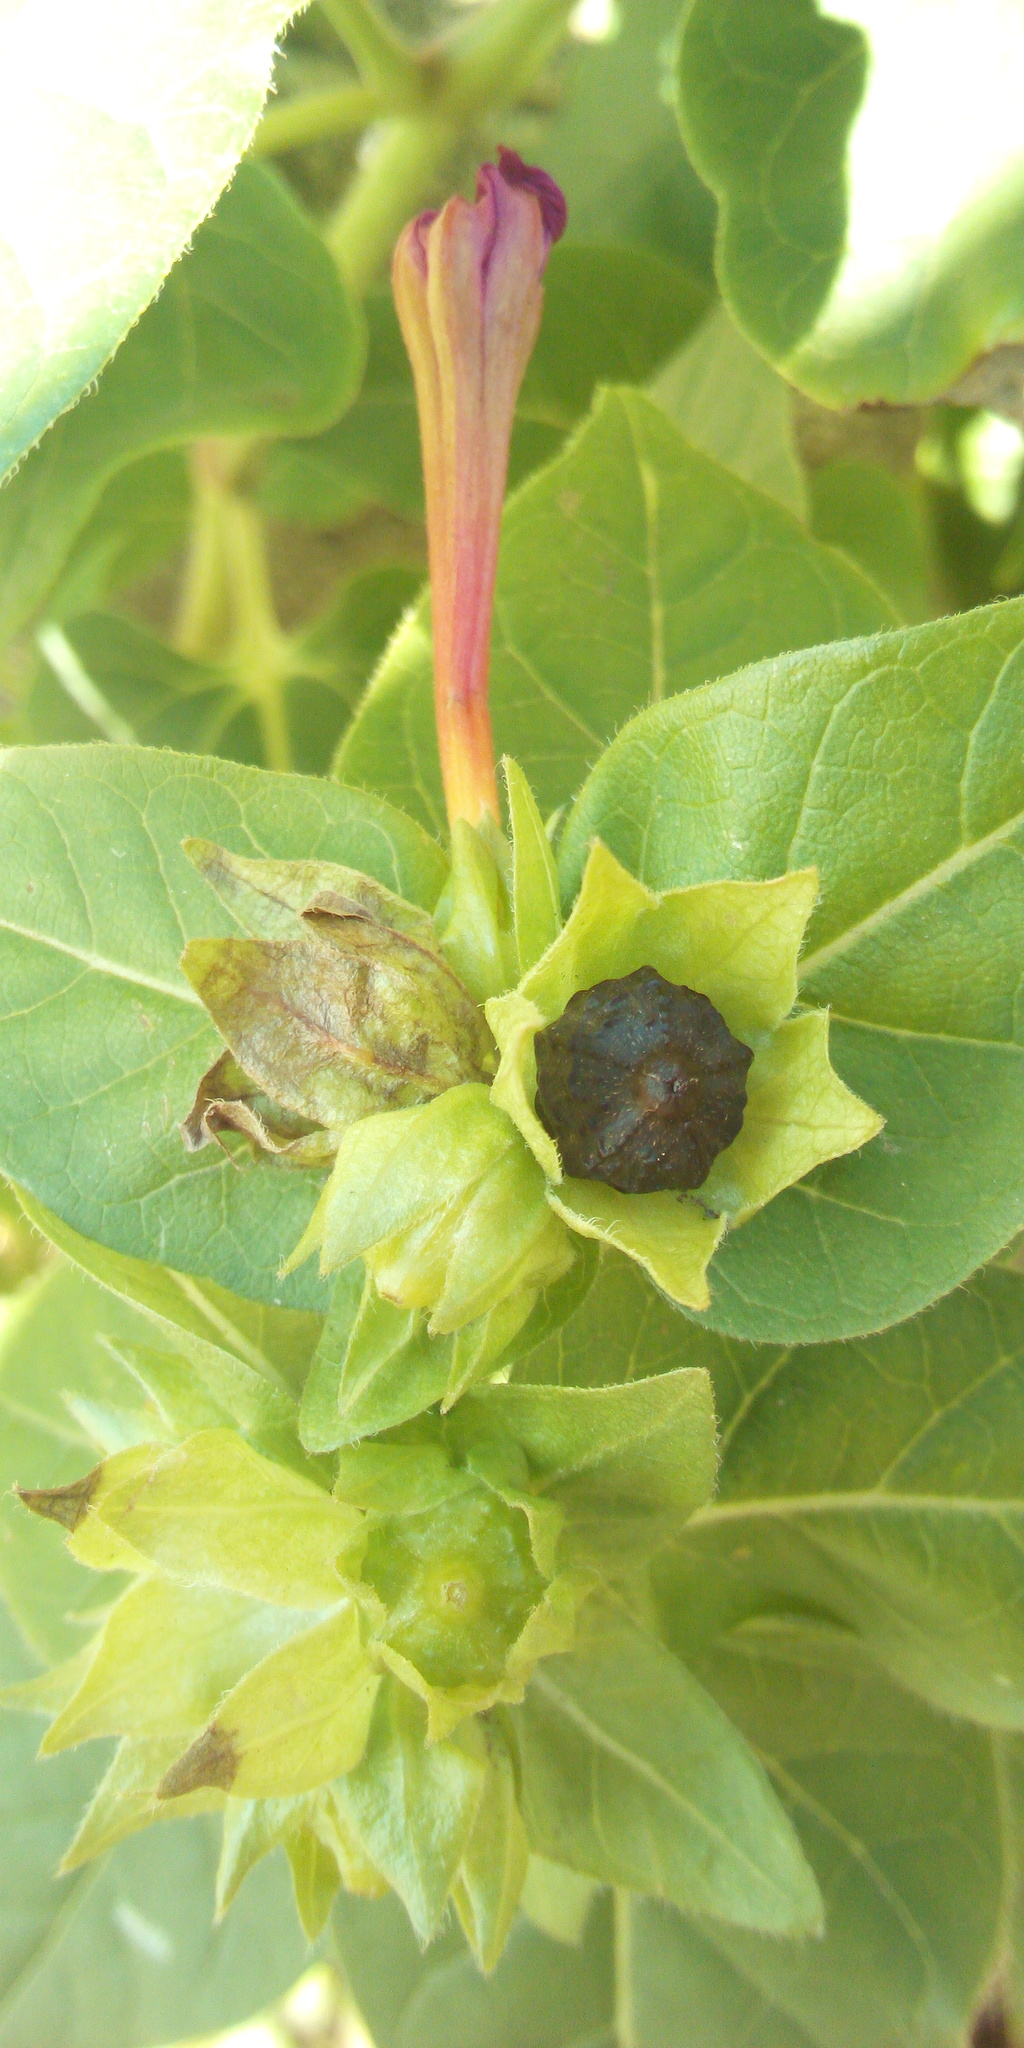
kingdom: Plantae
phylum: Tracheophyta
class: Magnoliopsida
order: Caryophyllales
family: Nyctaginaceae
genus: Mirabilis
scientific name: Mirabilis jalapa
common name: Marvel-of-peru
